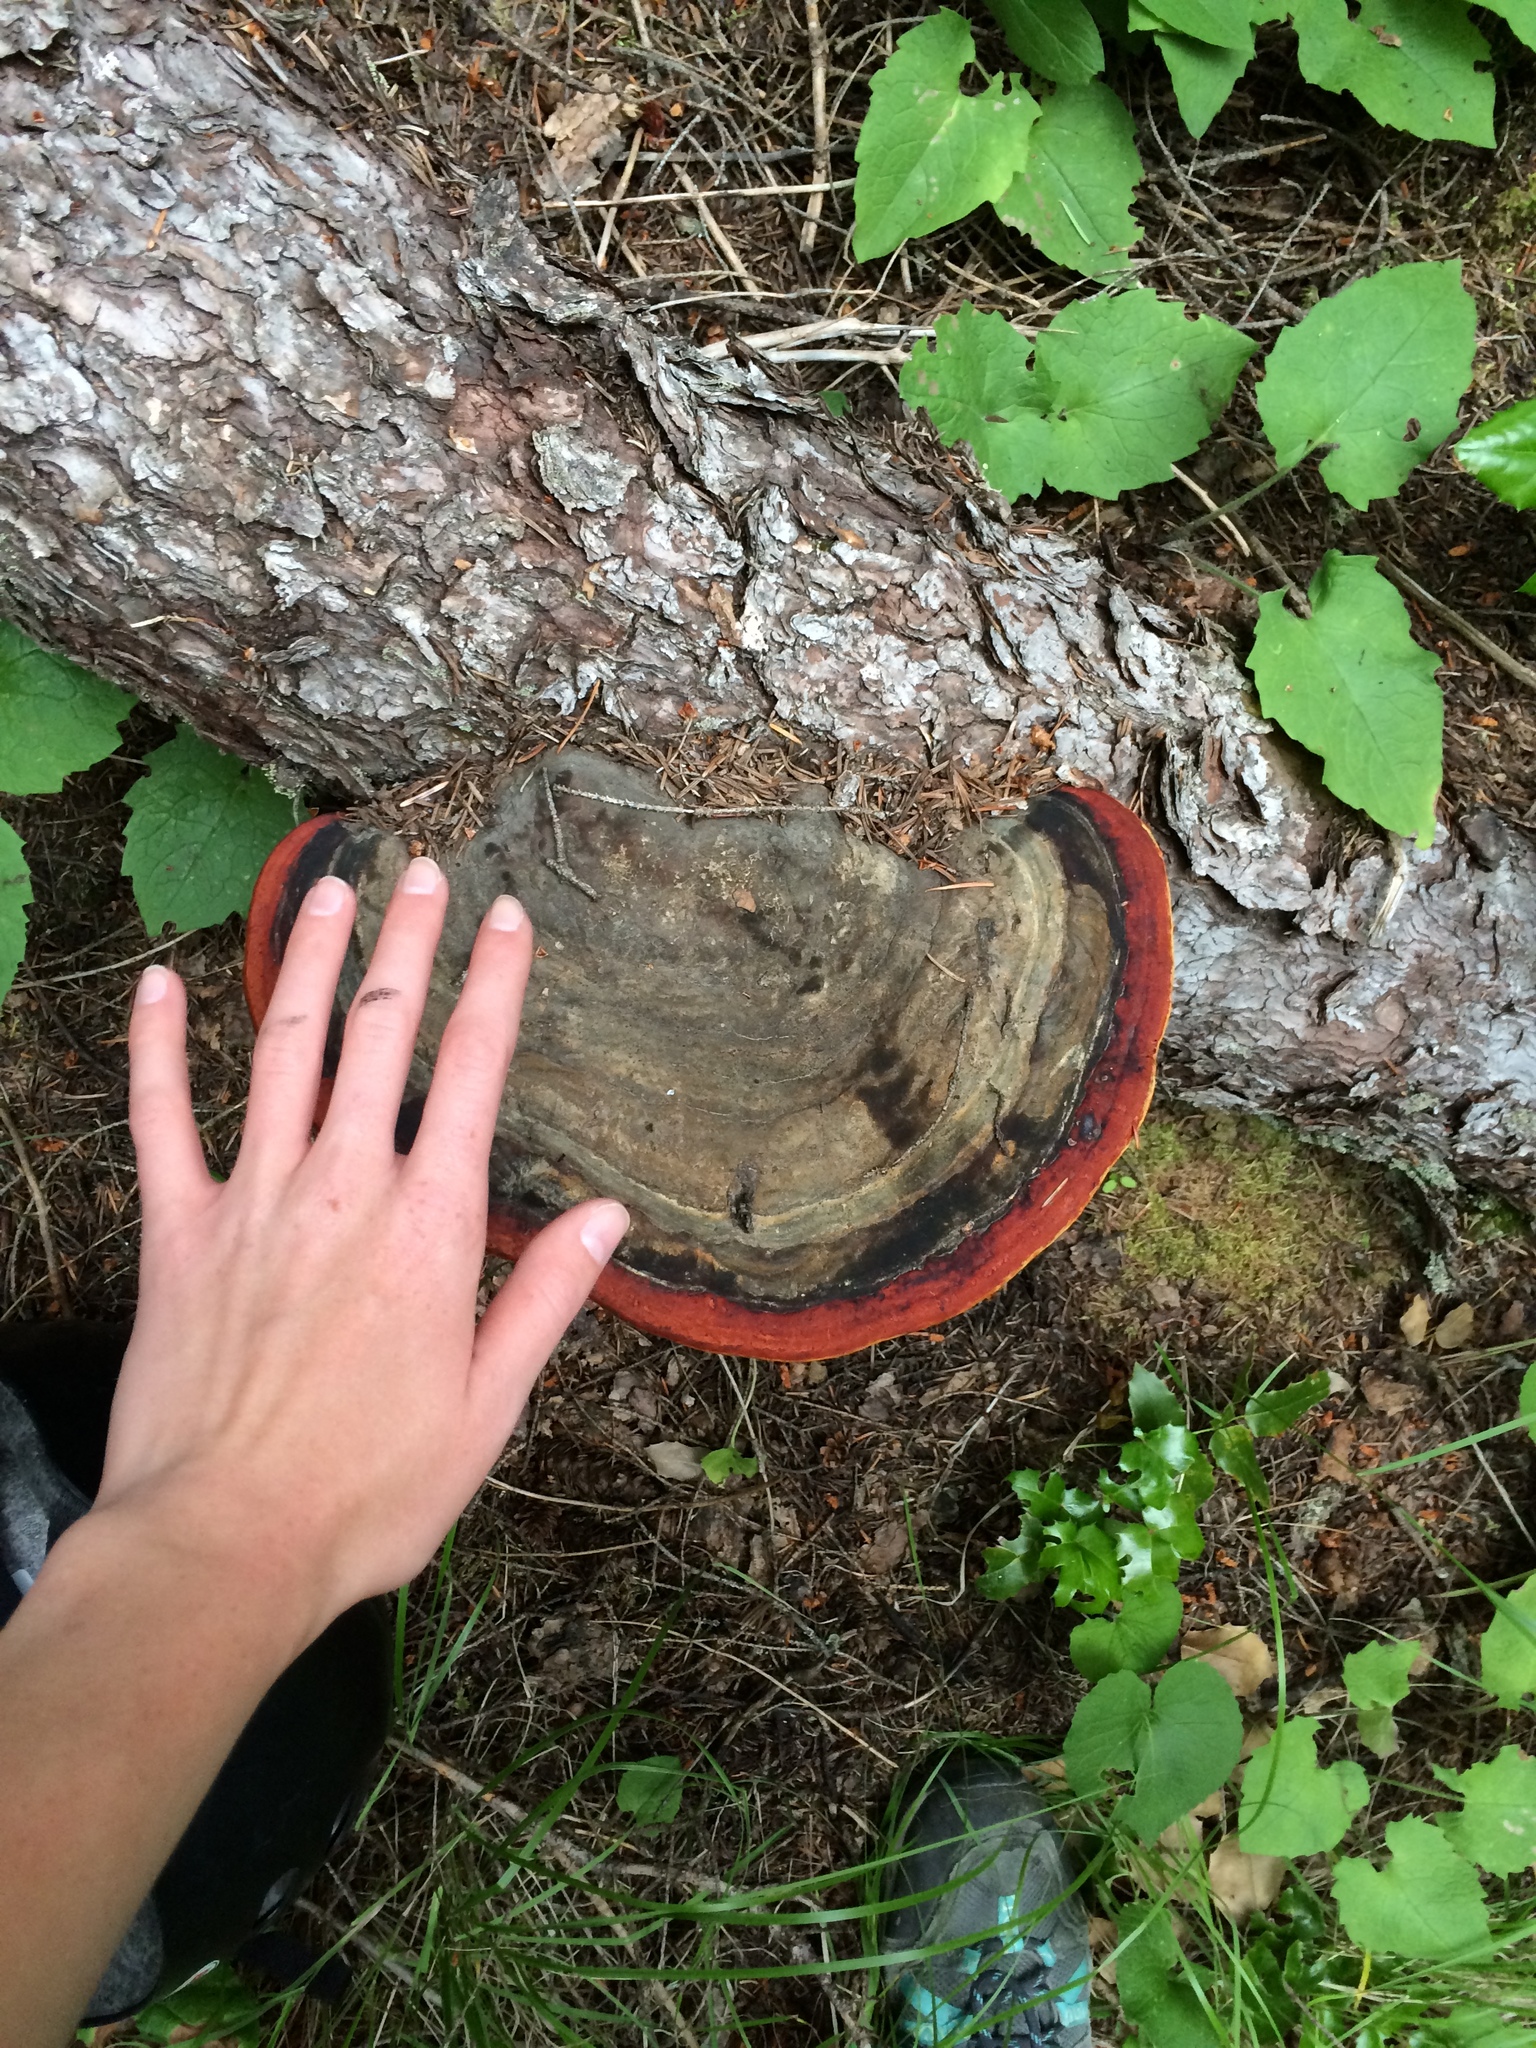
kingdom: Fungi
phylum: Basidiomycota
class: Agaricomycetes
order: Polyporales
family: Fomitopsidaceae
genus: Fomitopsis
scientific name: Fomitopsis mounceae
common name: Northern red belt
